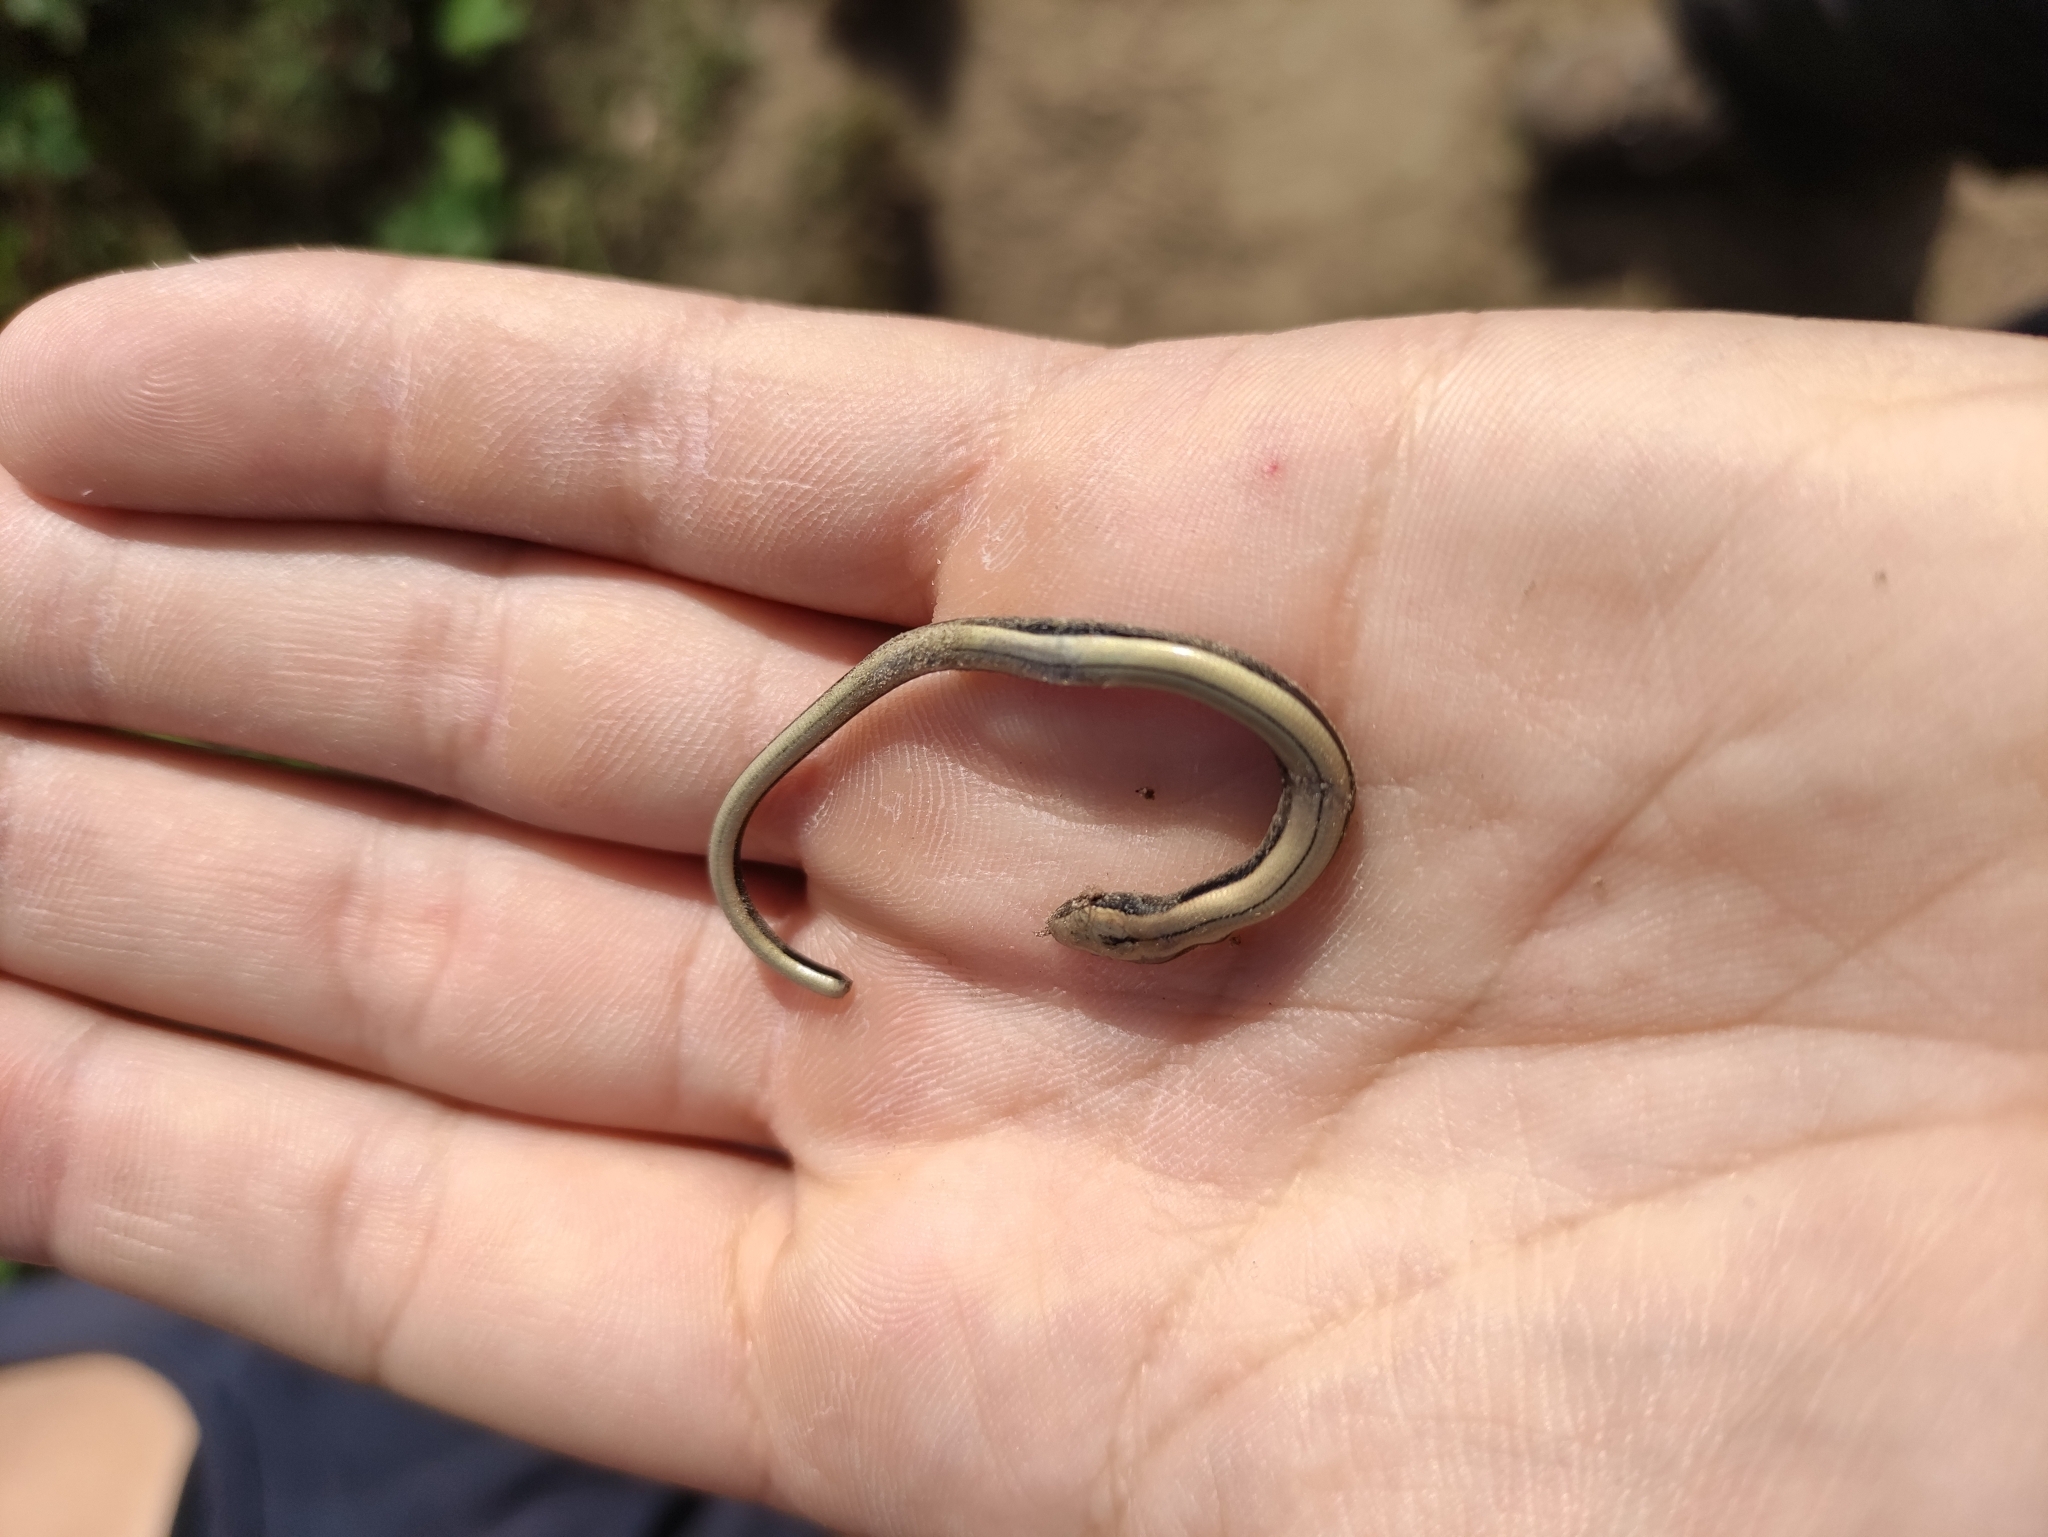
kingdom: Animalia
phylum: Chordata
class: Squamata
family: Anguidae
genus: Anguis
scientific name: Anguis fragilis
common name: Slow worm
